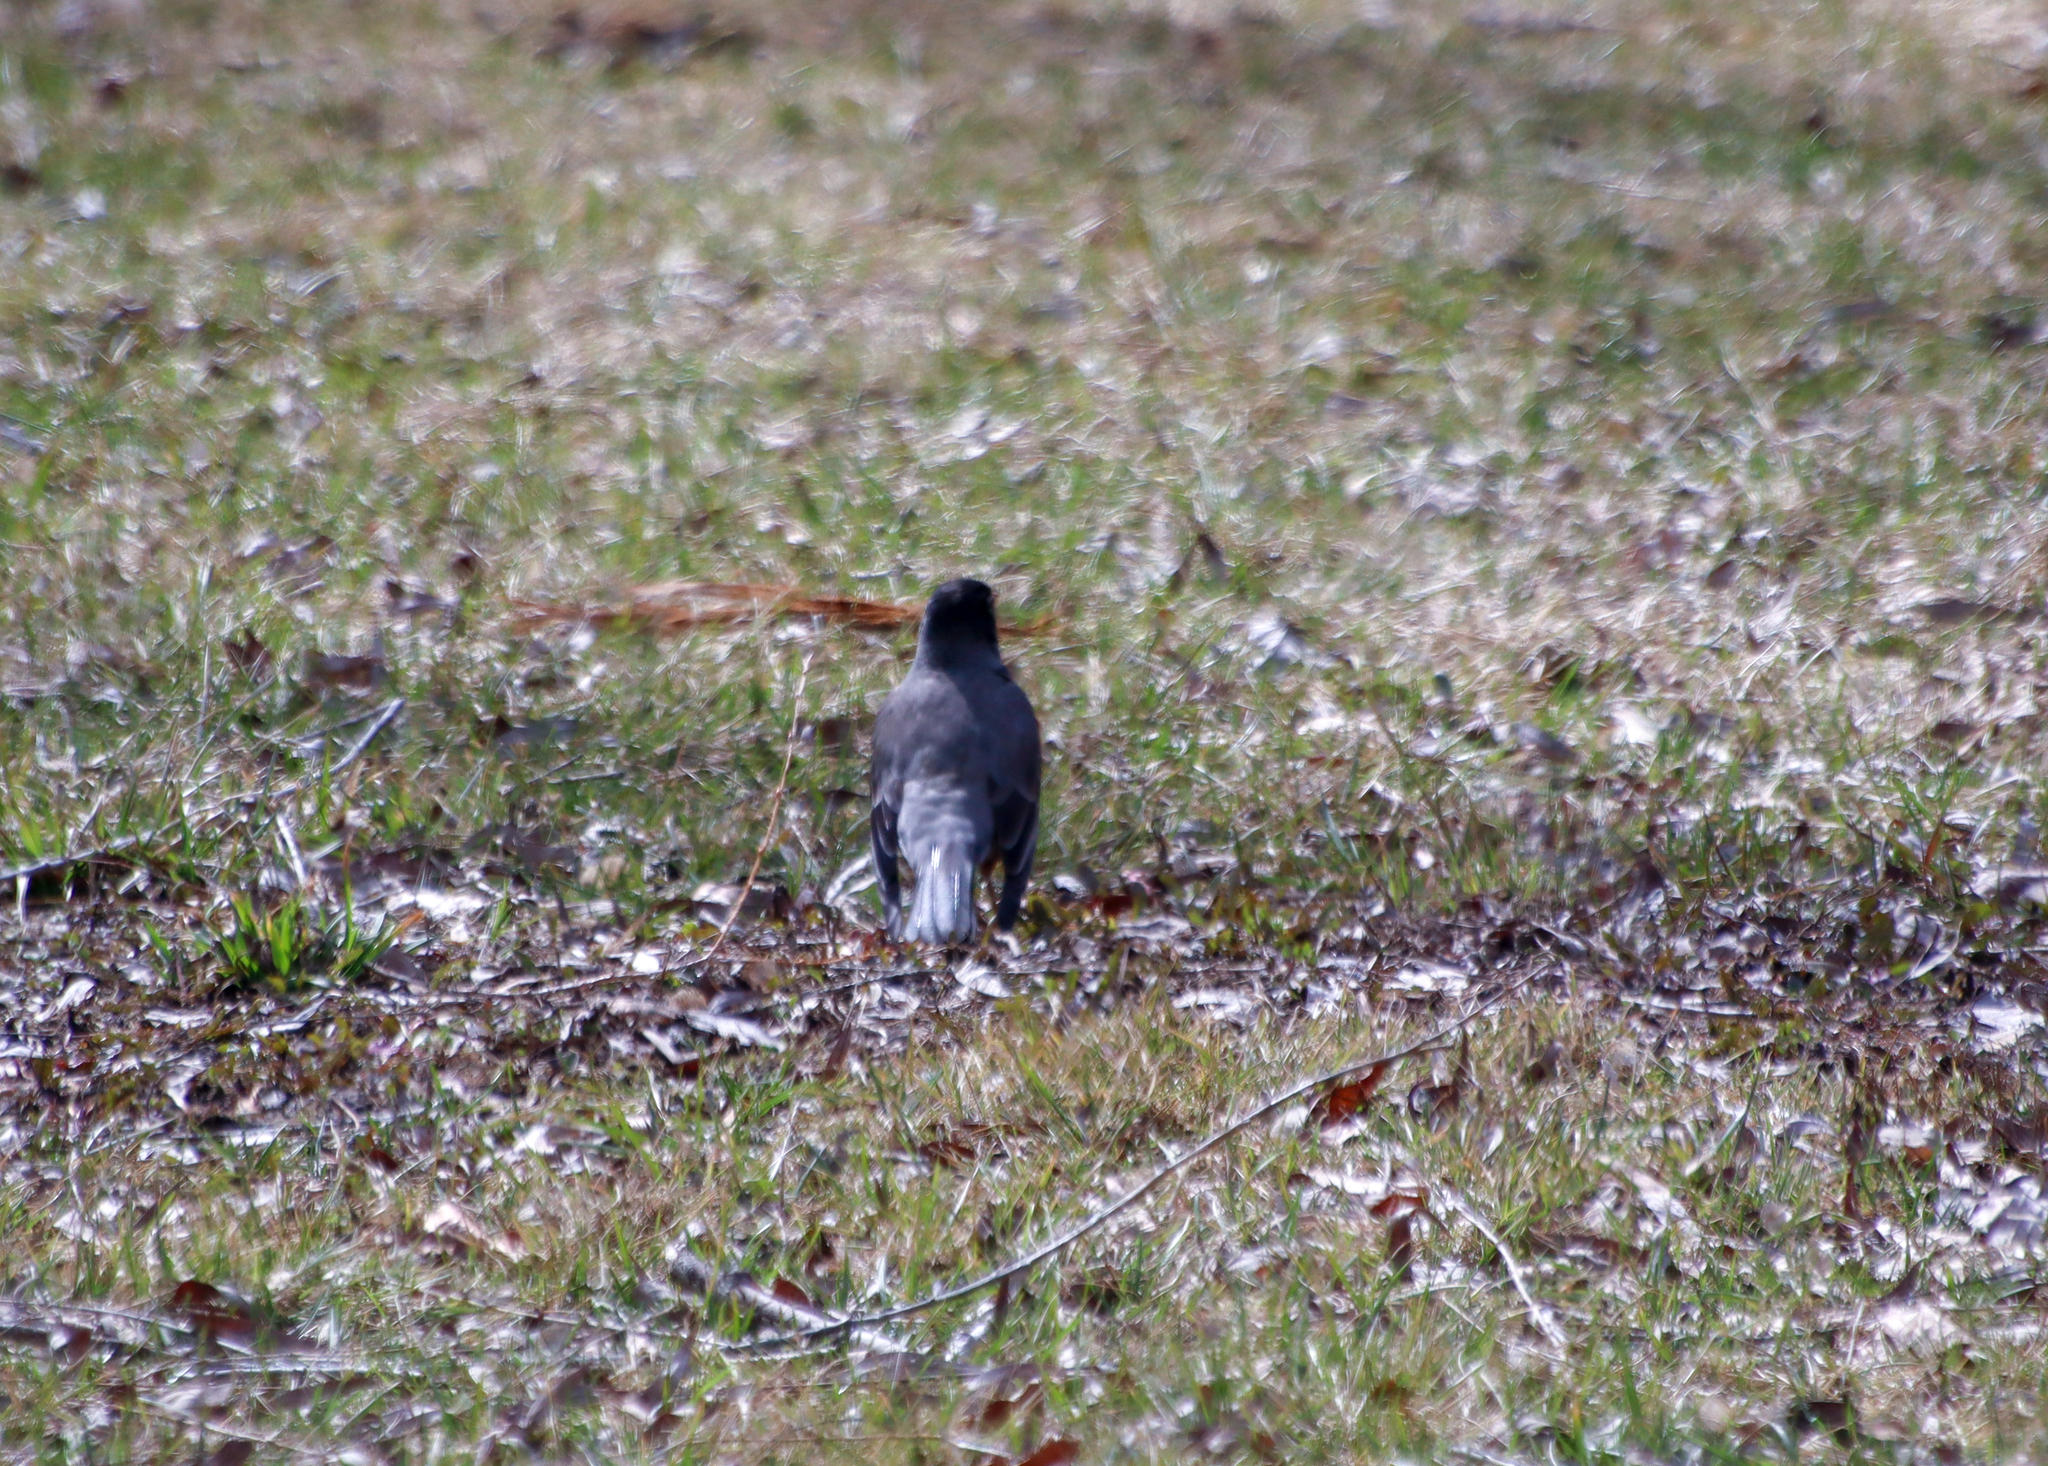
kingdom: Animalia
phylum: Chordata
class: Aves
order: Passeriformes
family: Turdidae
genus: Turdus
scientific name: Turdus migratorius
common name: American robin
